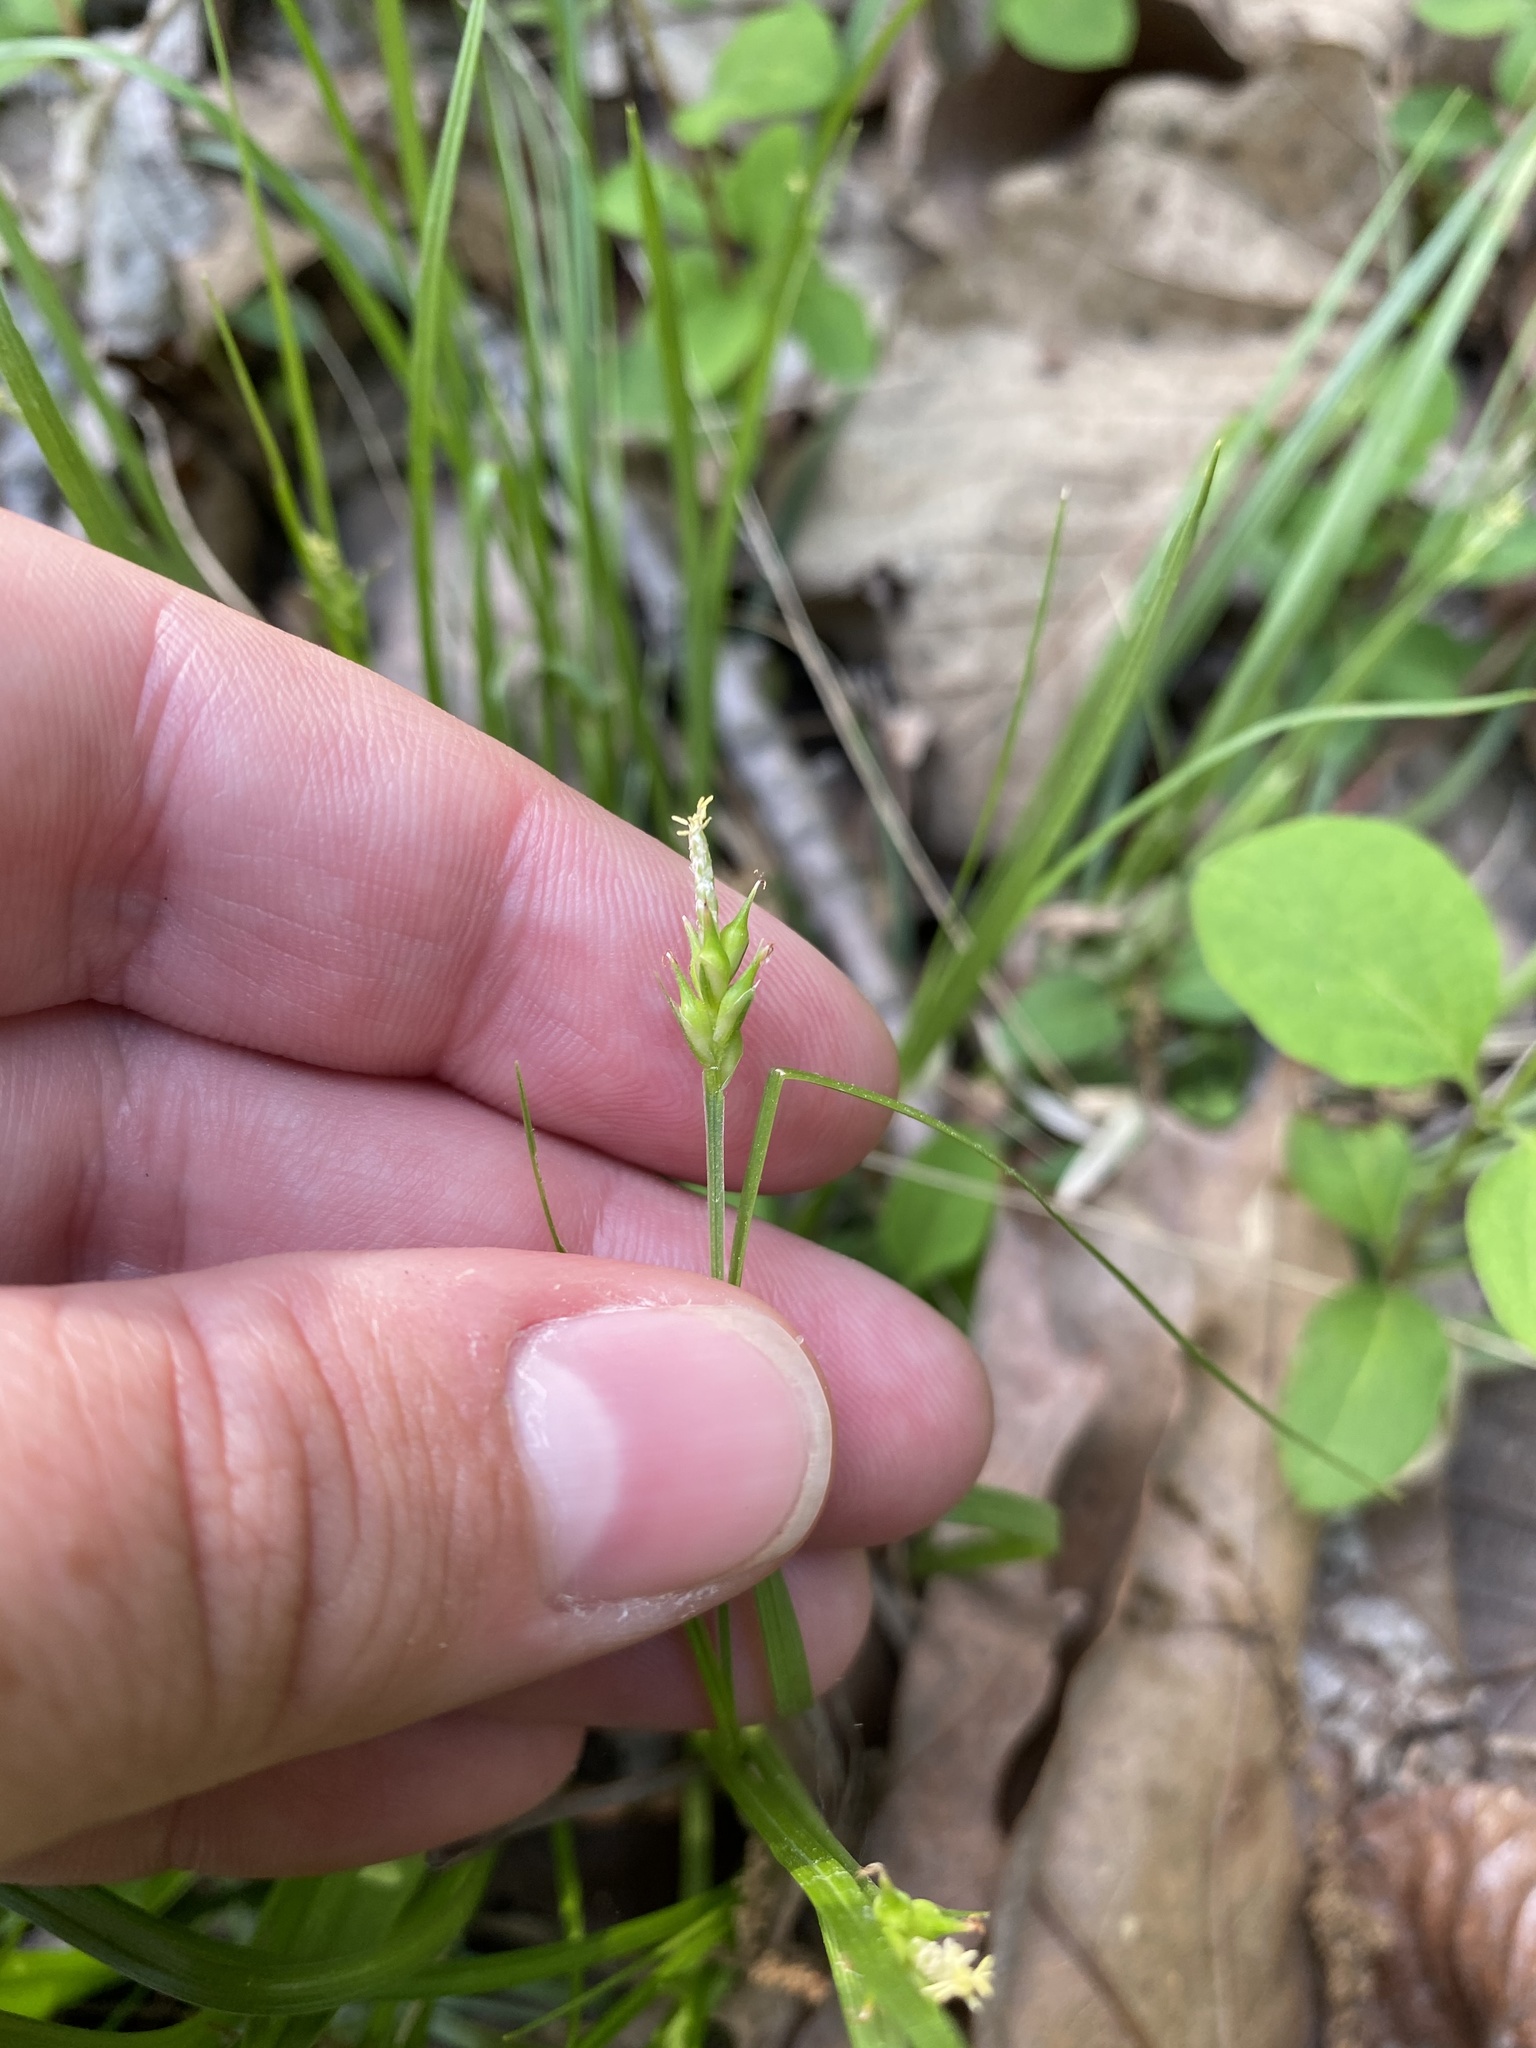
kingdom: Plantae
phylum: Tracheophyta
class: Liliopsida
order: Poales
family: Cyperaceae
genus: Carex
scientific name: Carex willdenowii
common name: Willdenow's sedge
